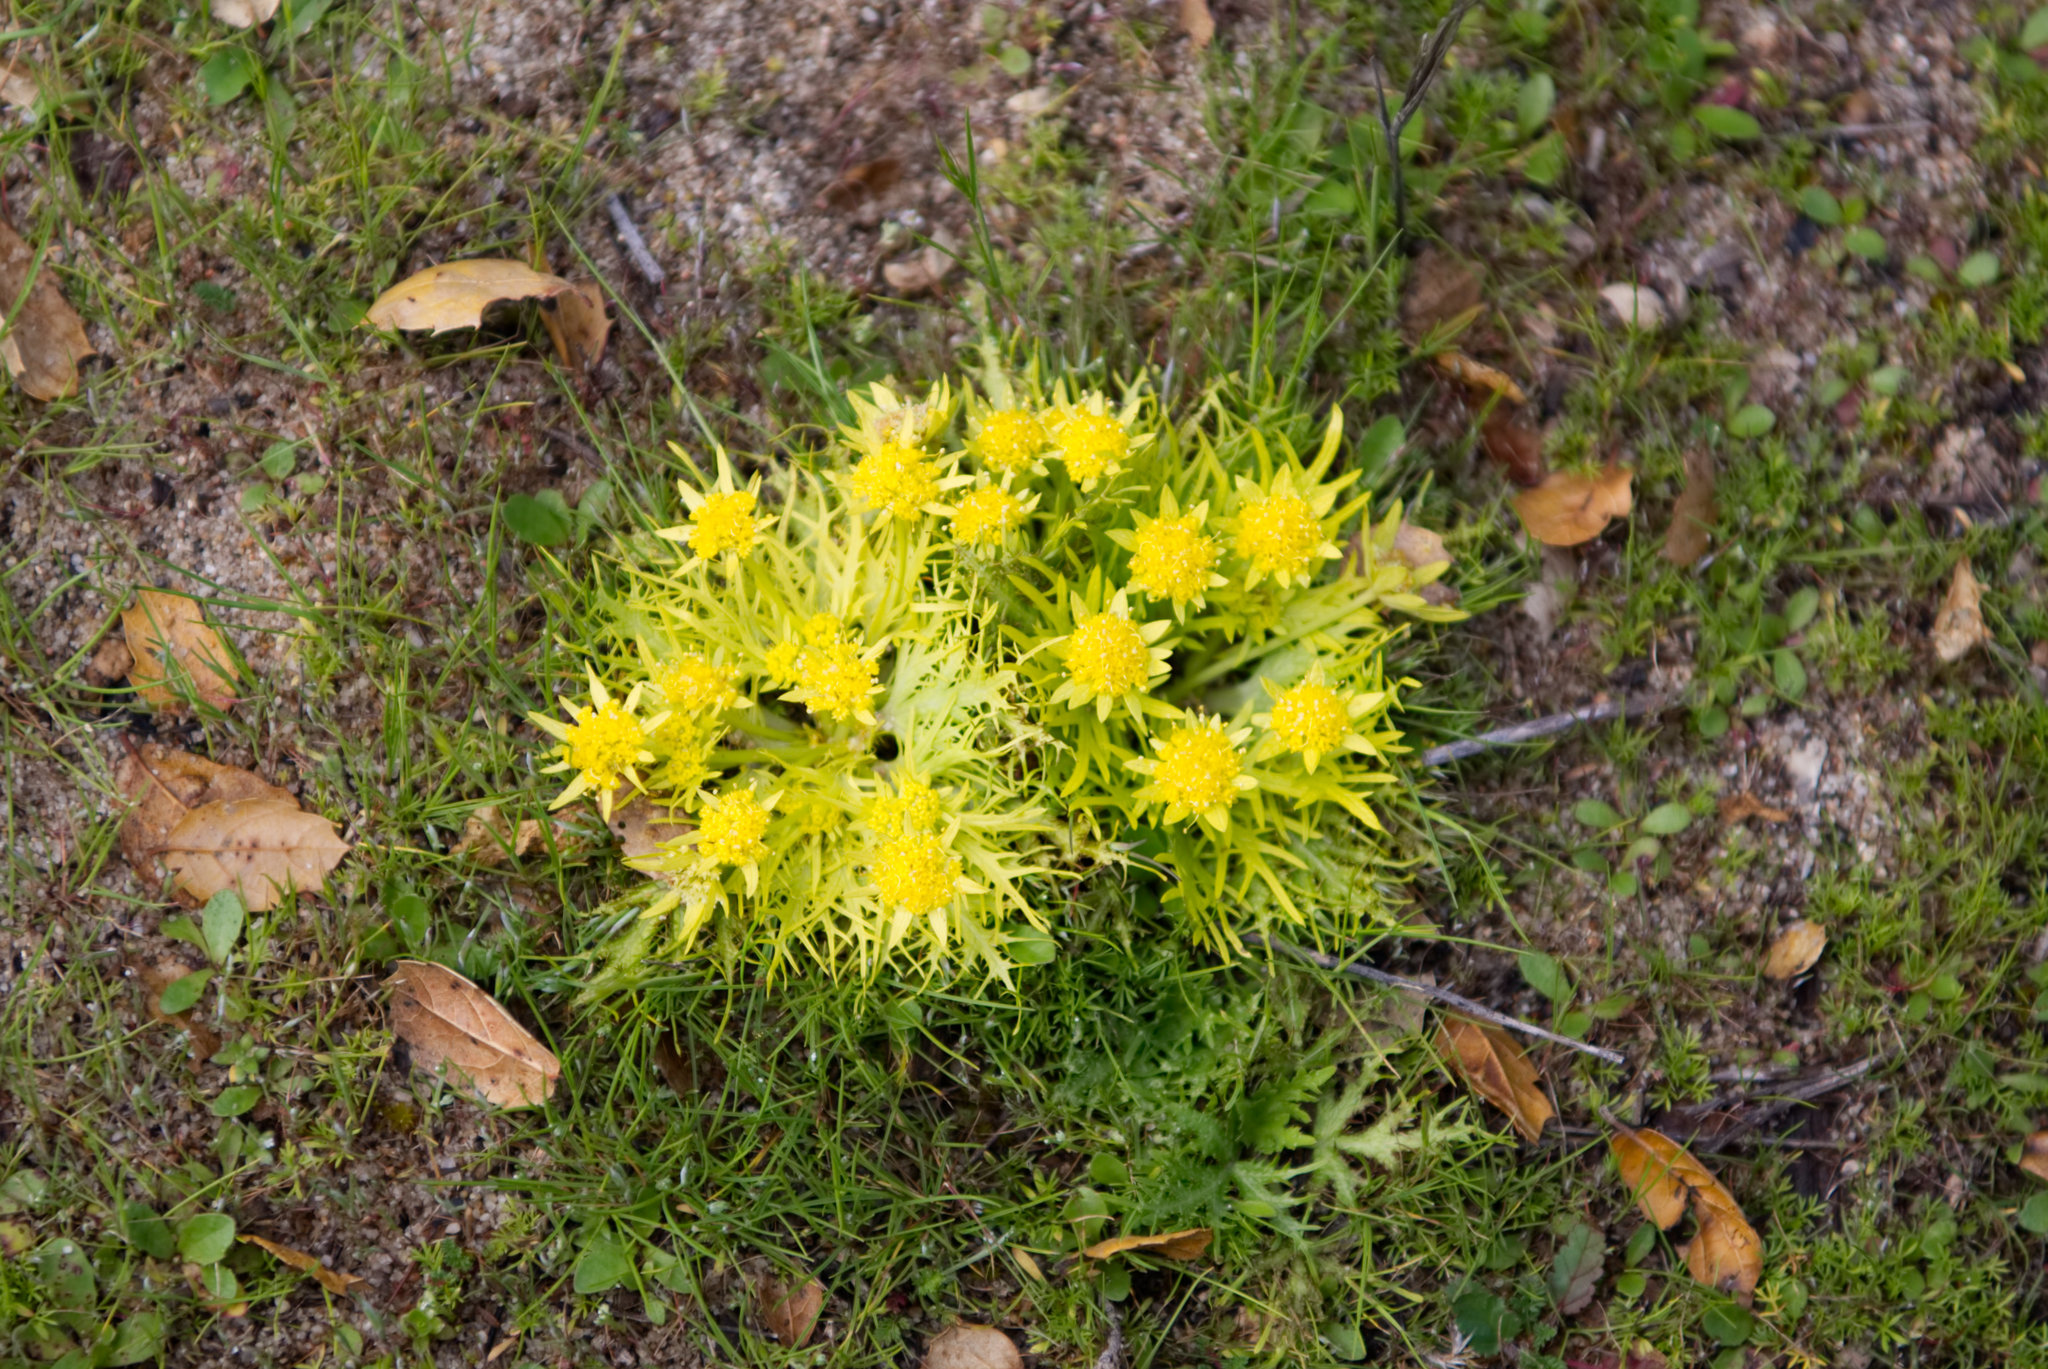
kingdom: Plantae
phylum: Tracheophyta
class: Magnoliopsida
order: Apiales
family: Apiaceae
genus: Sanicula
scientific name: Sanicula arctopoides
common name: Footsteps-of-spring
